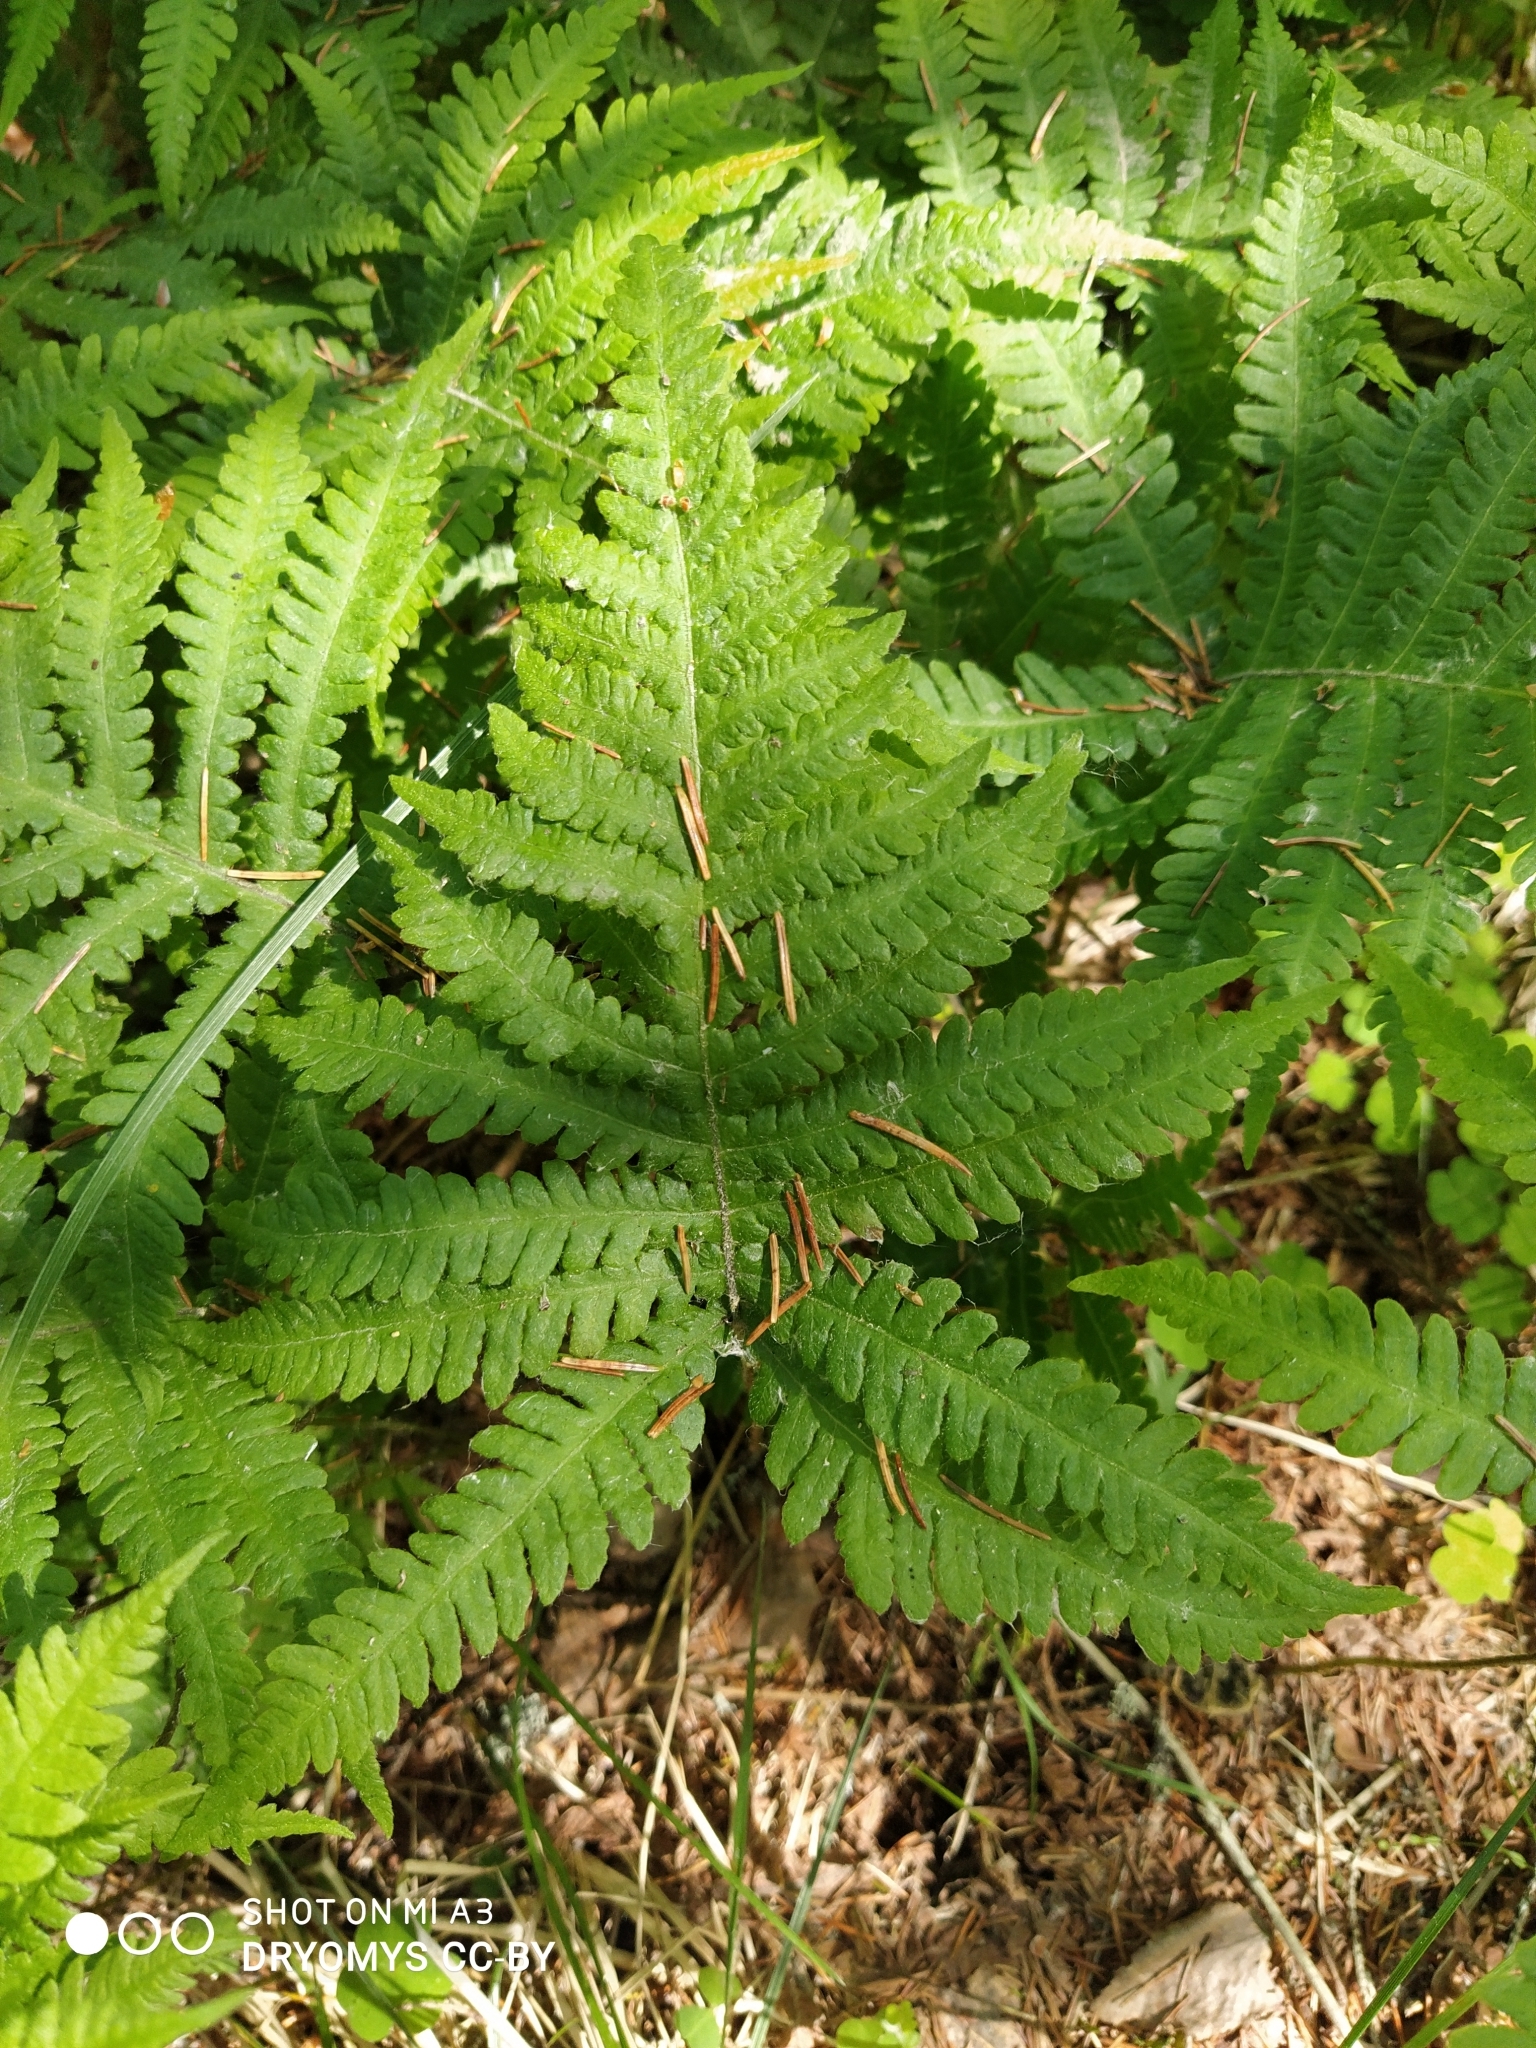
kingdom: Plantae
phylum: Tracheophyta
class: Polypodiopsida
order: Polypodiales
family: Thelypteridaceae
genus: Phegopteris
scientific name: Phegopteris connectilis
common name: Beech fern
